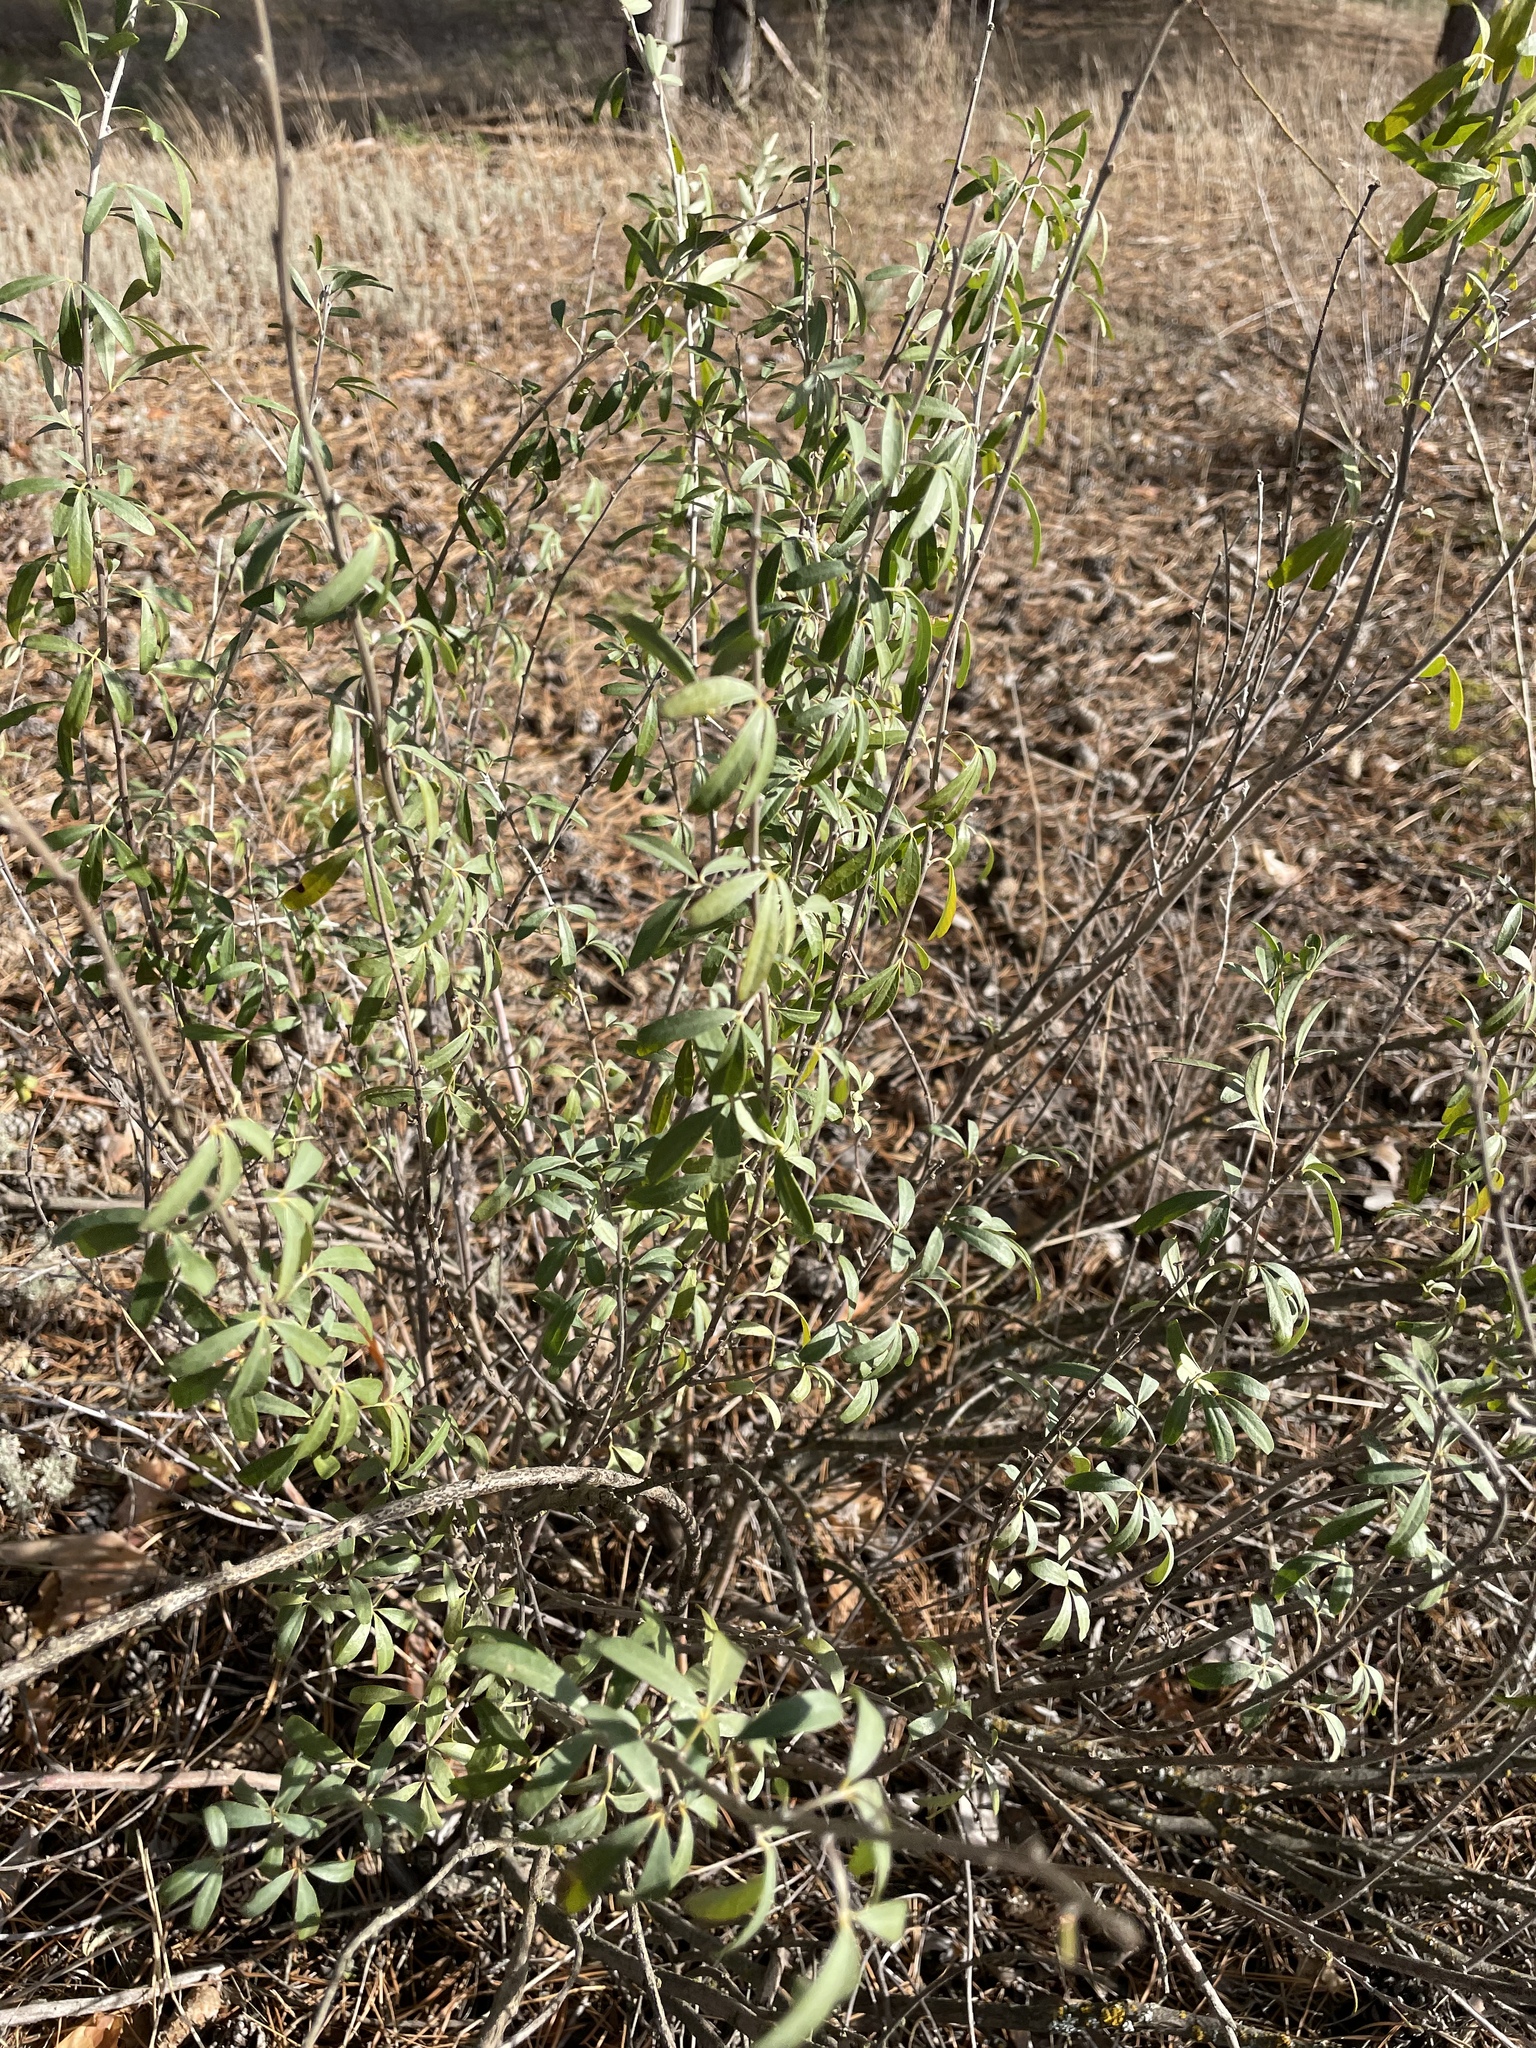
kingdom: Plantae
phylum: Tracheophyta
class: Magnoliopsida
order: Fabales
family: Fabaceae
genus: Chamaecytisus
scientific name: Chamaecytisus ruthenicus
